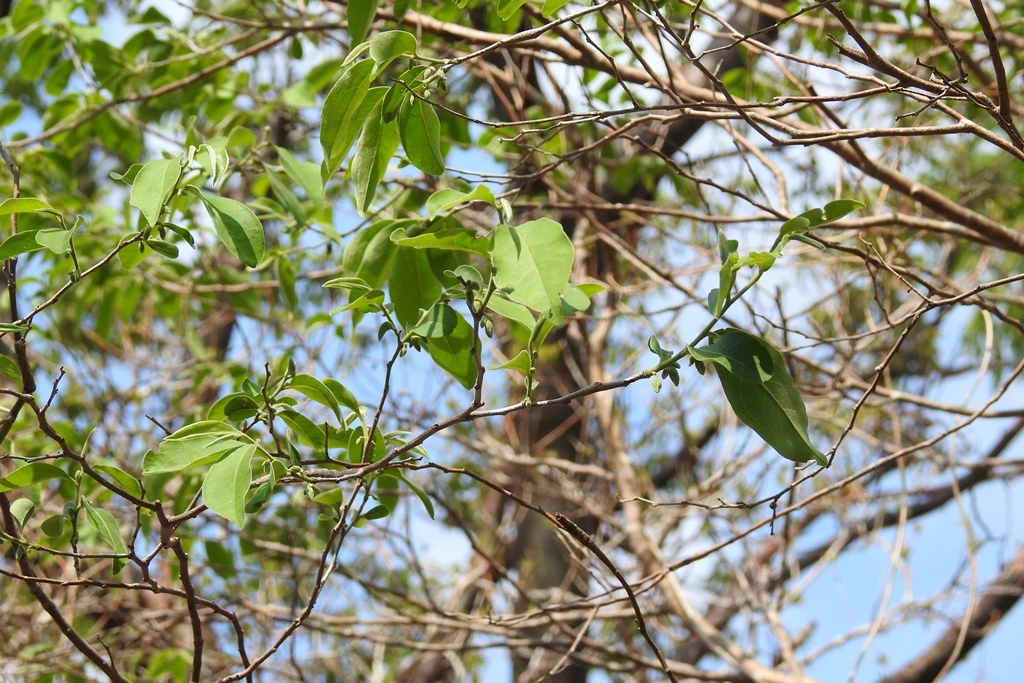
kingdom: Plantae
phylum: Tracheophyta
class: Magnoliopsida
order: Ericales
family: Ebenaceae
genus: Diospyros
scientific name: Diospyros salicifolia
